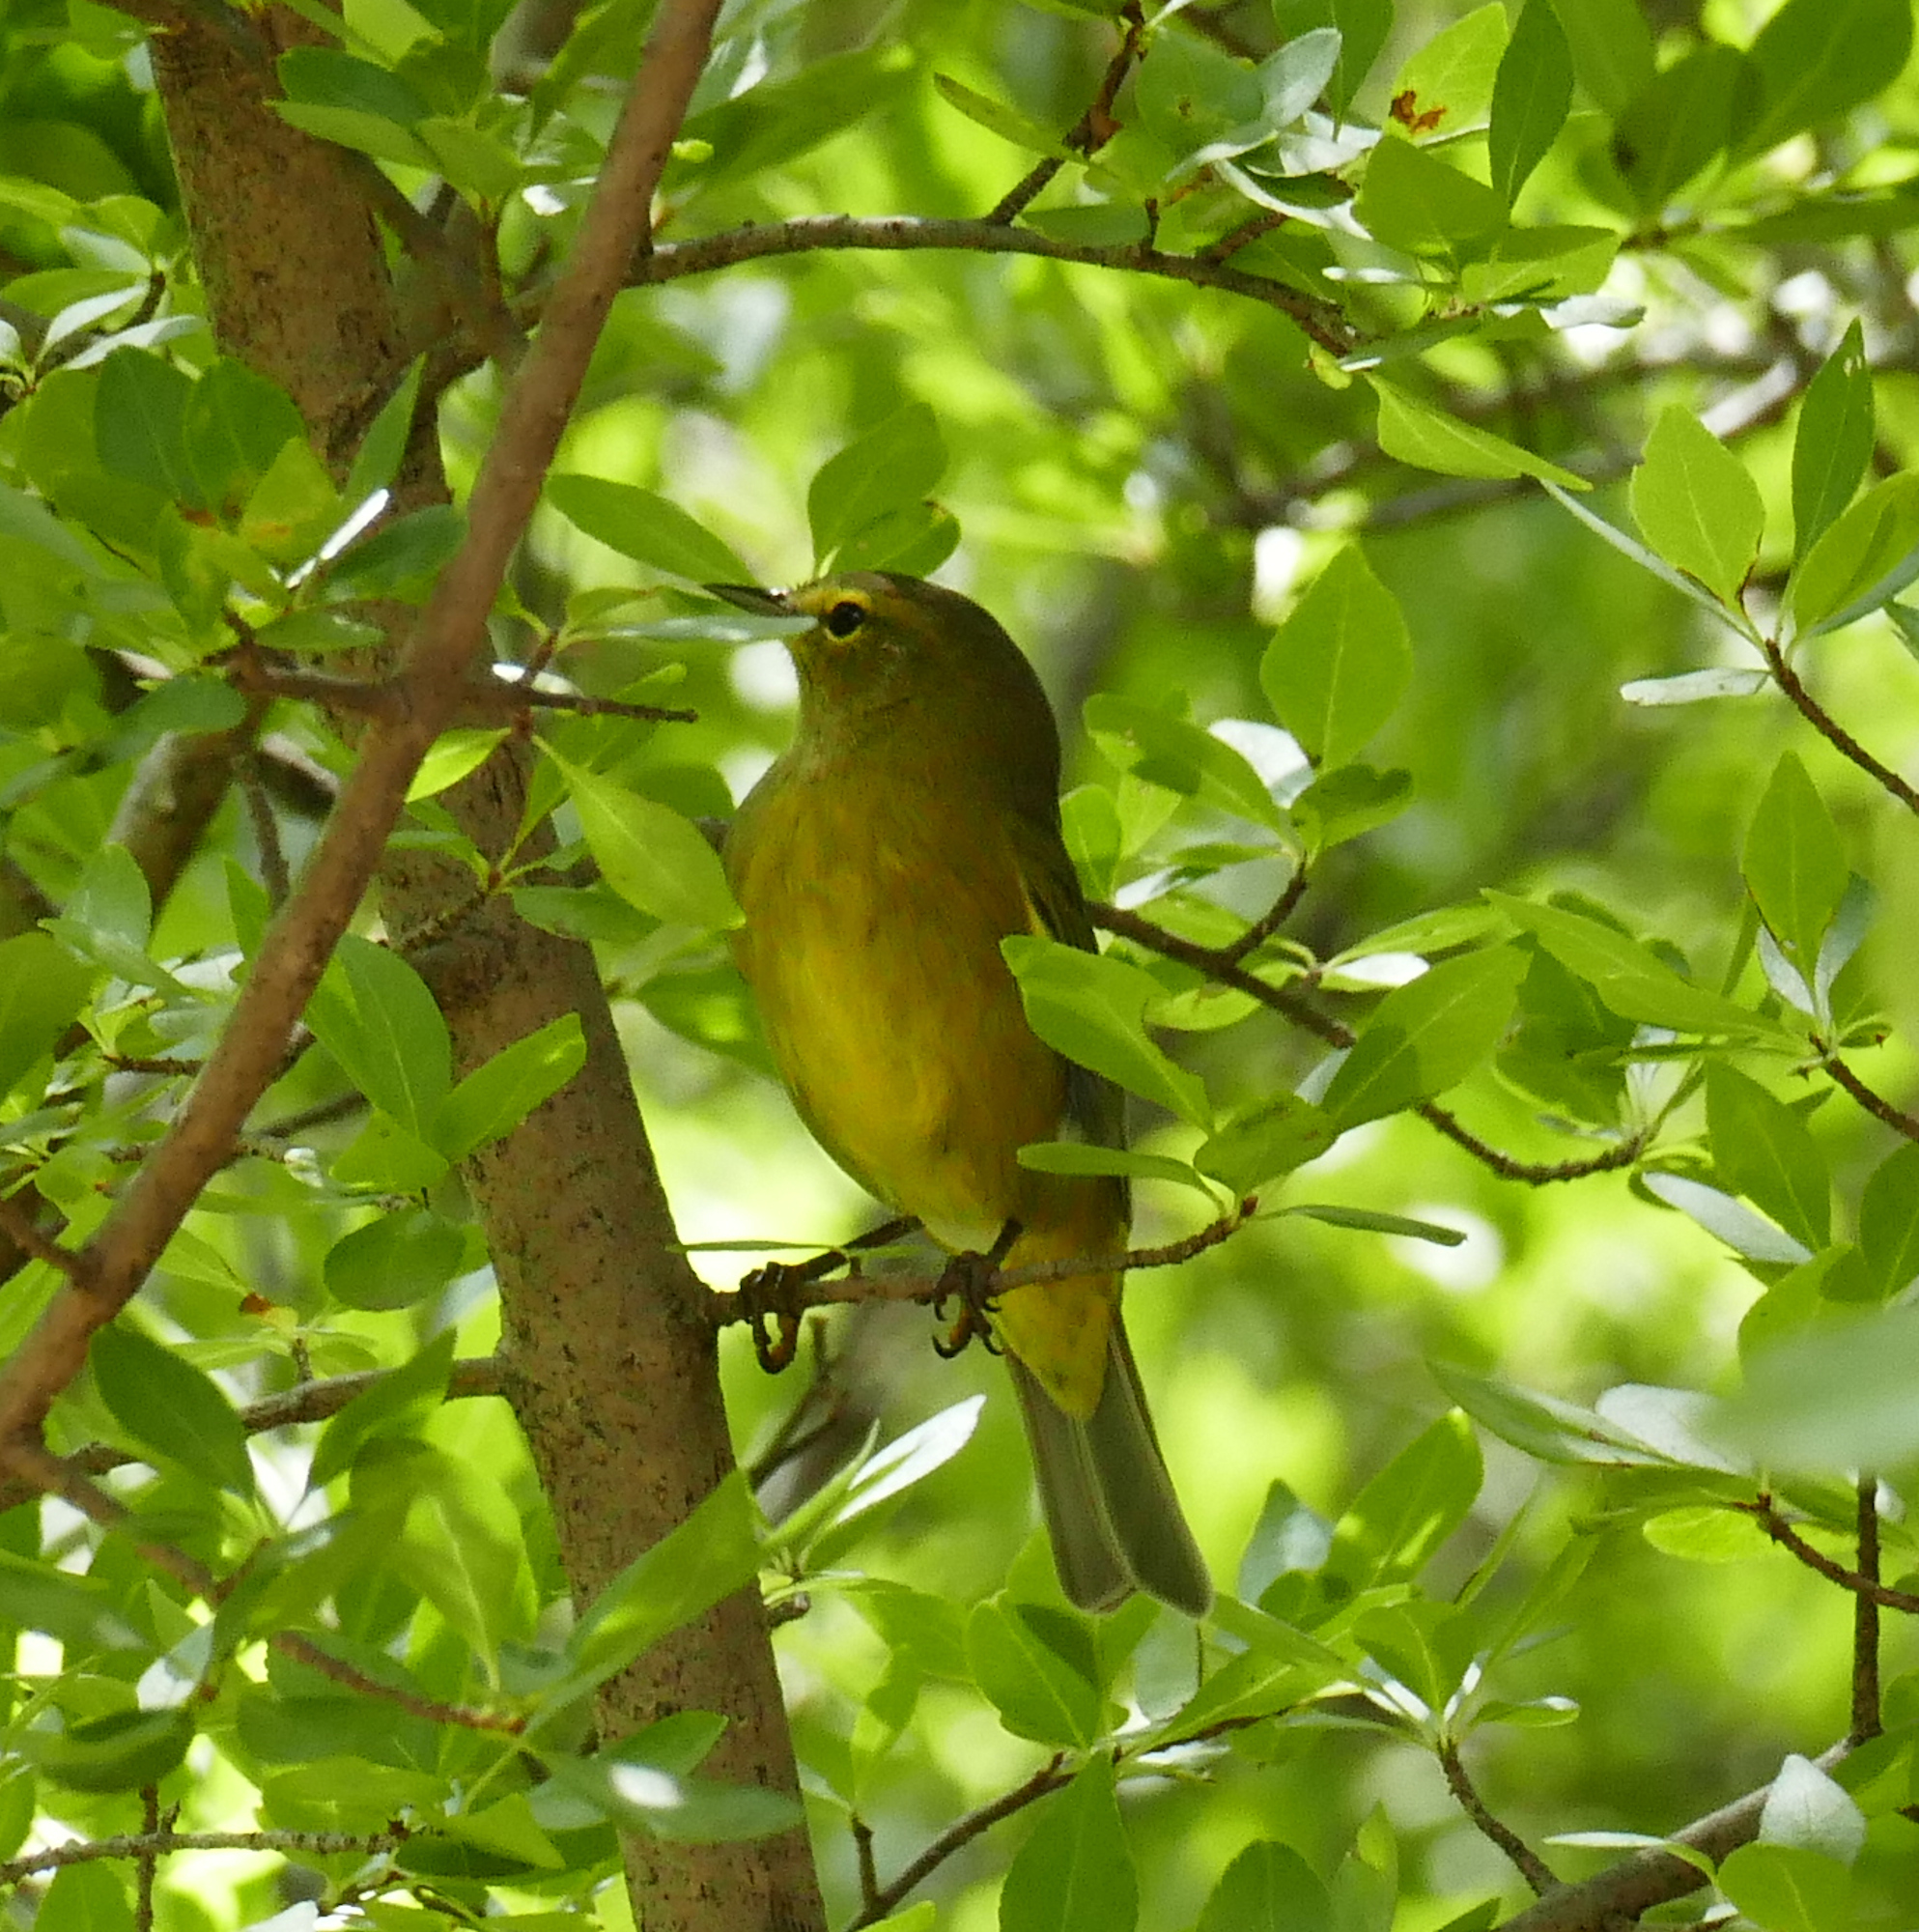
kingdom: Animalia
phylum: Chordata
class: Aves
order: Passeriformes
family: Parulidae
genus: Leiothlypis
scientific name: Leiothlypis celata
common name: Orange-crowned warbler
